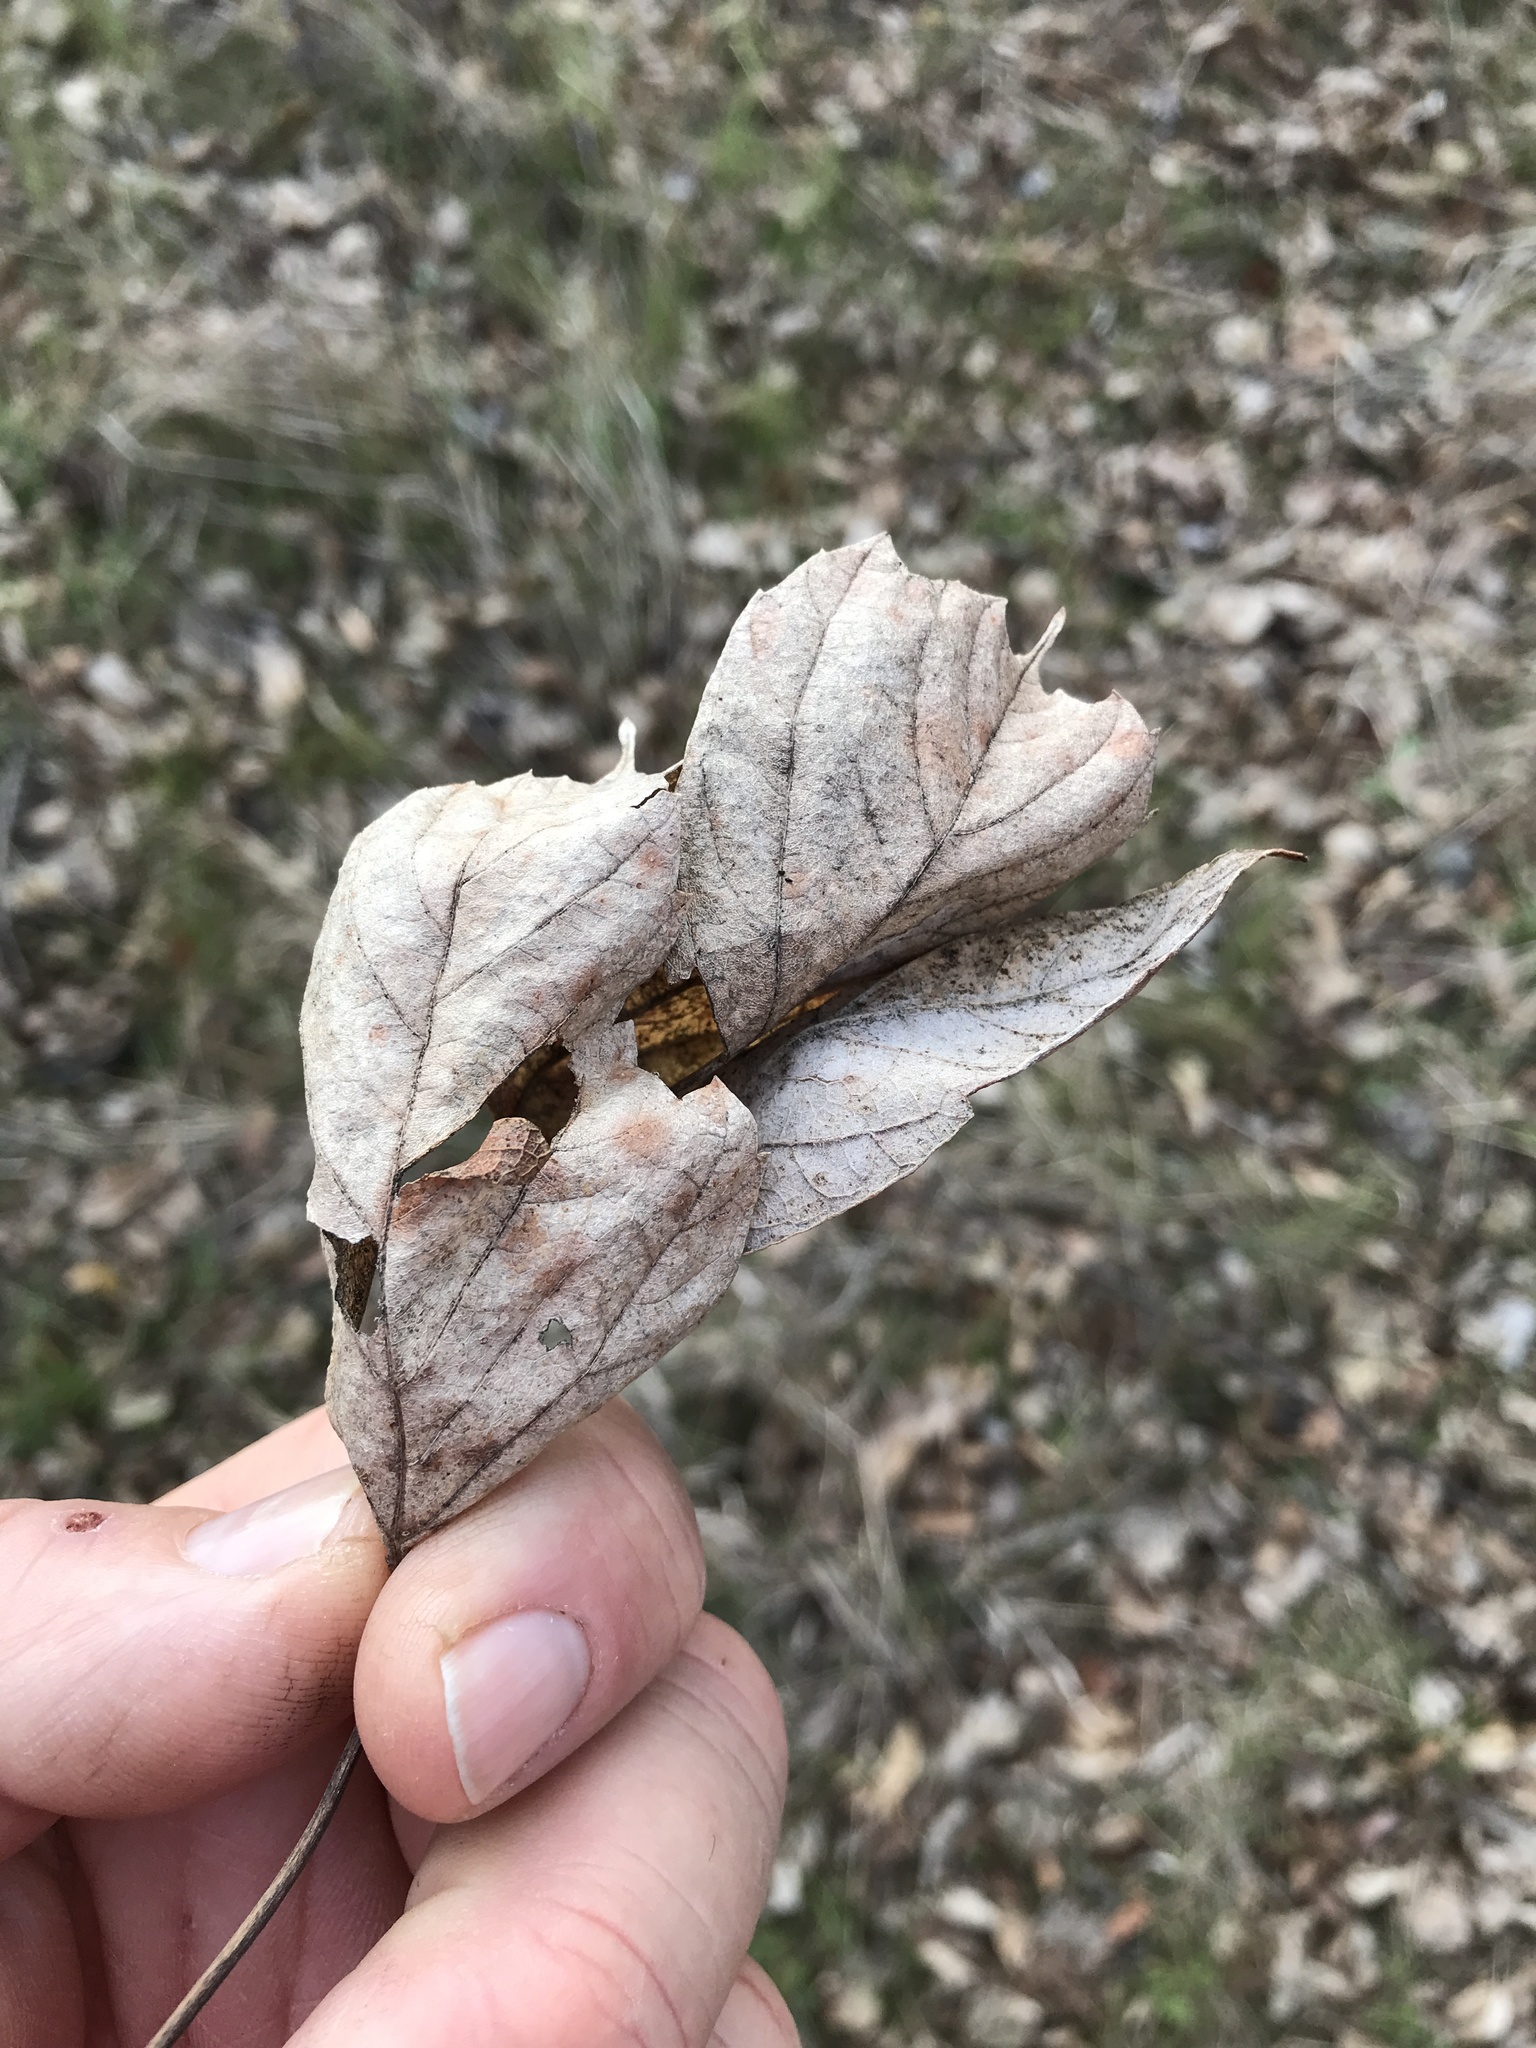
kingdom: Plantae
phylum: Tracheophyta
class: Magnoliopsida
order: Sapindales
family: Sapindaceae
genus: Acer
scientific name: Acer negundo
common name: Ashleaf maple
